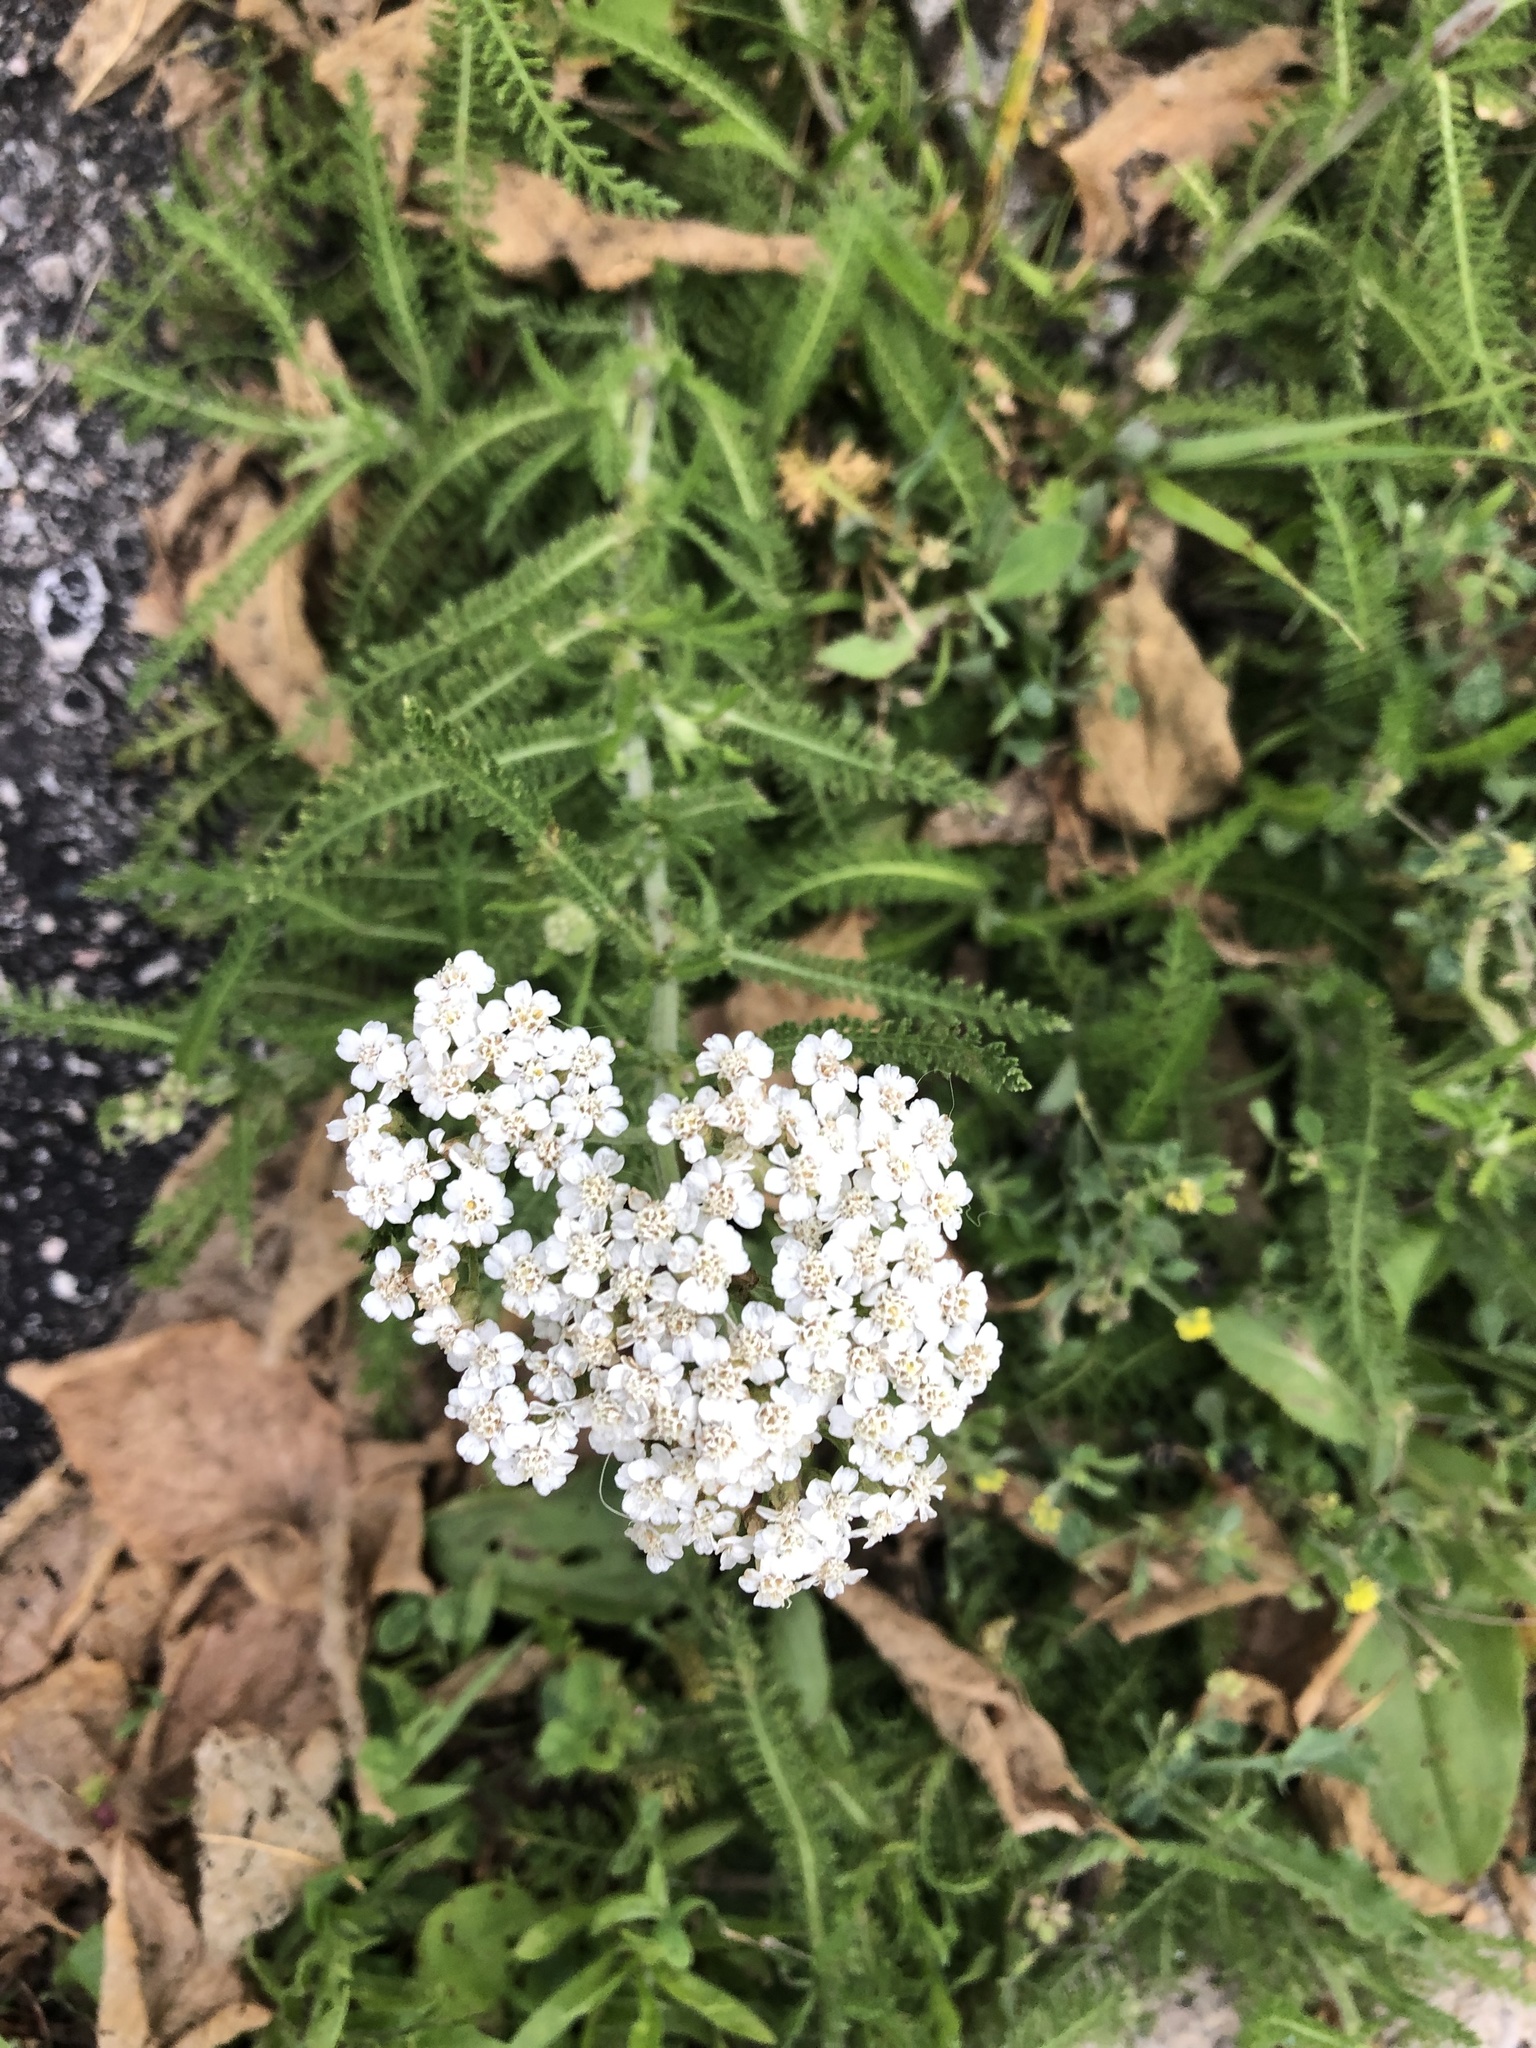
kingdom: Plantae
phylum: Tracheophyta
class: Magnoliopsida
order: Asterales
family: Asteraceae
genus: Achillea
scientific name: Achillea millefolium
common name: Yarrow
